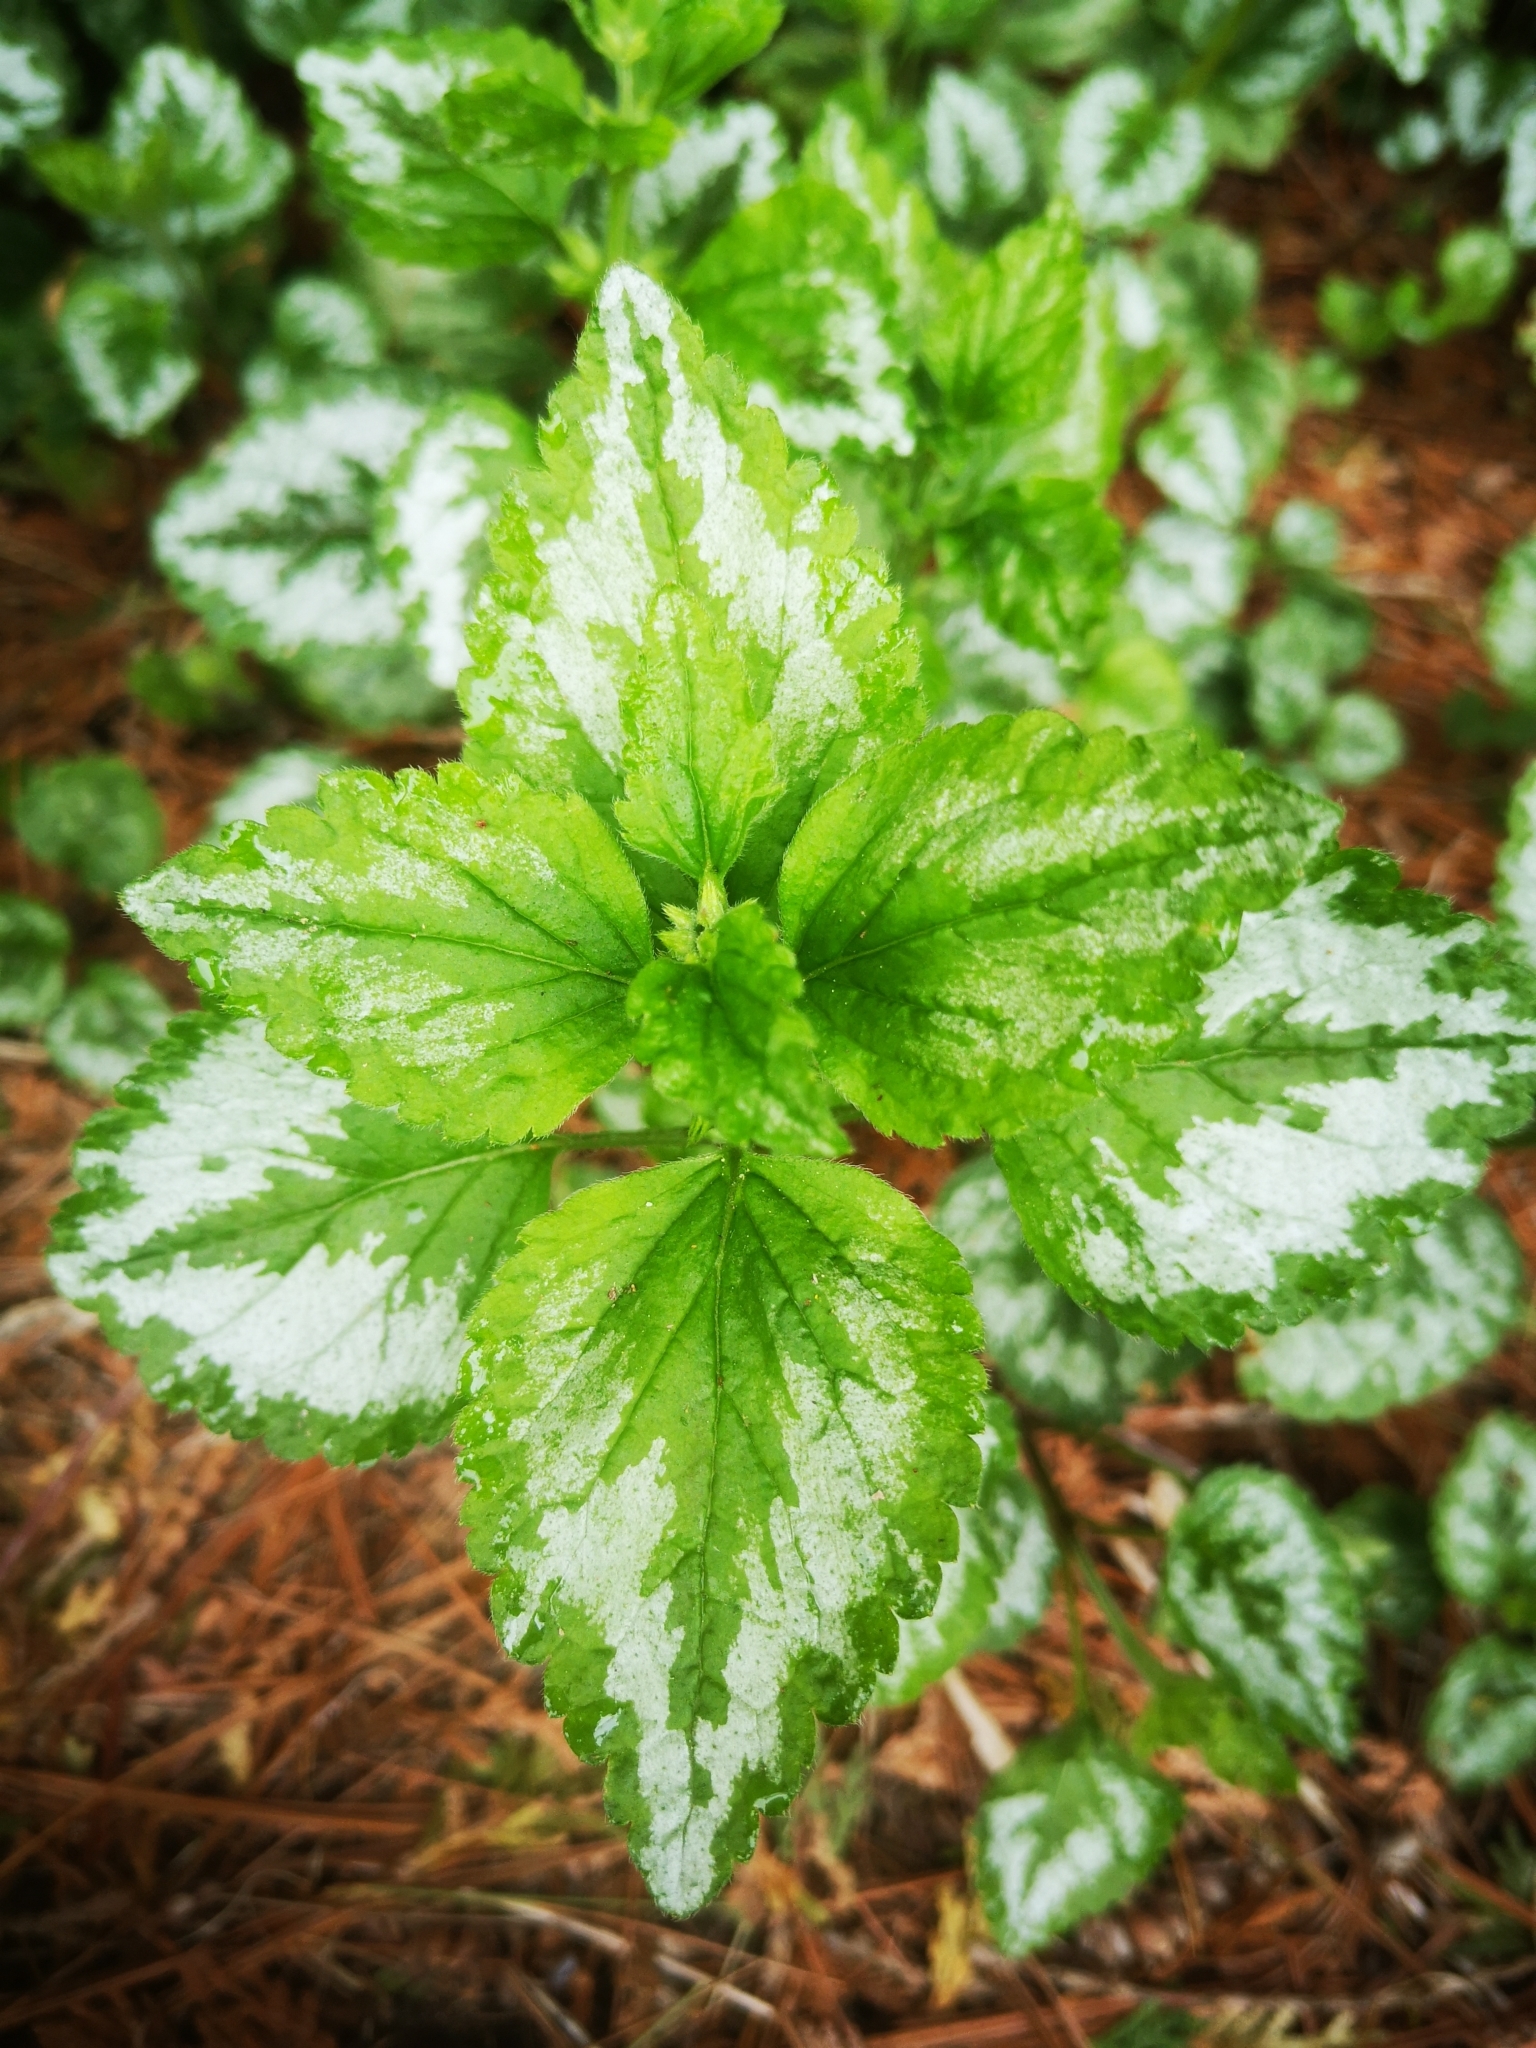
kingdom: Plantae
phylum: Tracheophyta
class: Magnoliopsida
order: Lamiales
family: Lamiaceae
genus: Lamium
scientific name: Lamium galeobdolon
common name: Yellow archangel
